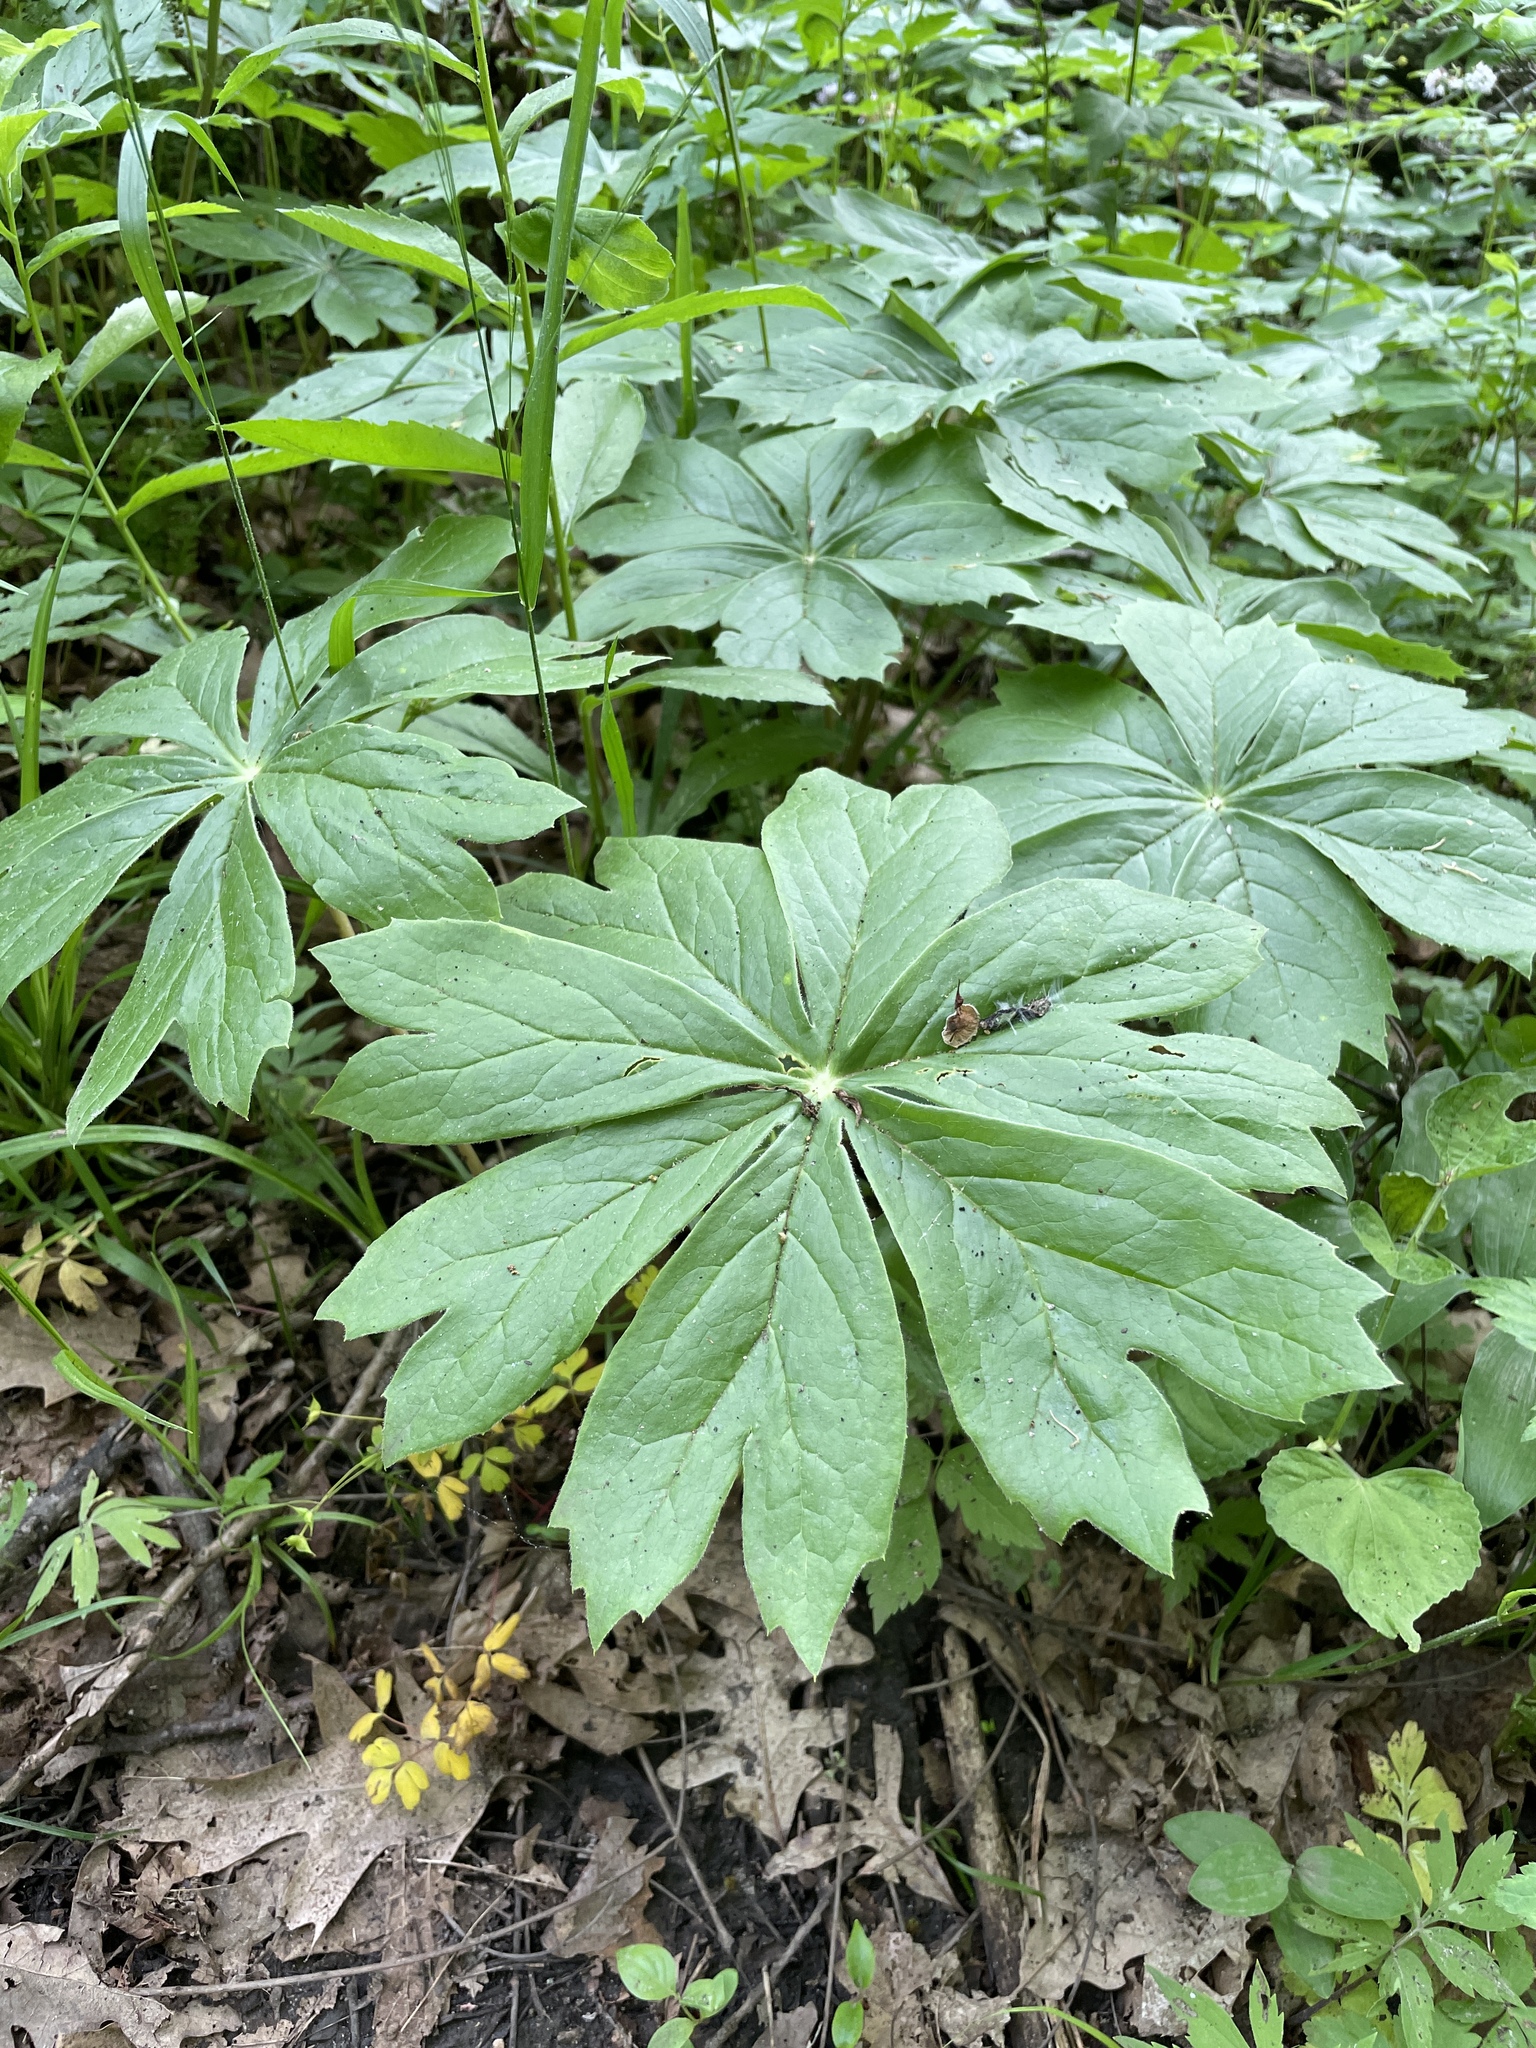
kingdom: Plantae
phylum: Tracheophyta
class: Magnoliopsida
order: Ranunculales
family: Berberidaceae
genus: Podophyllum
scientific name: Podophyllum peltatum
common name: Wild mandrake
